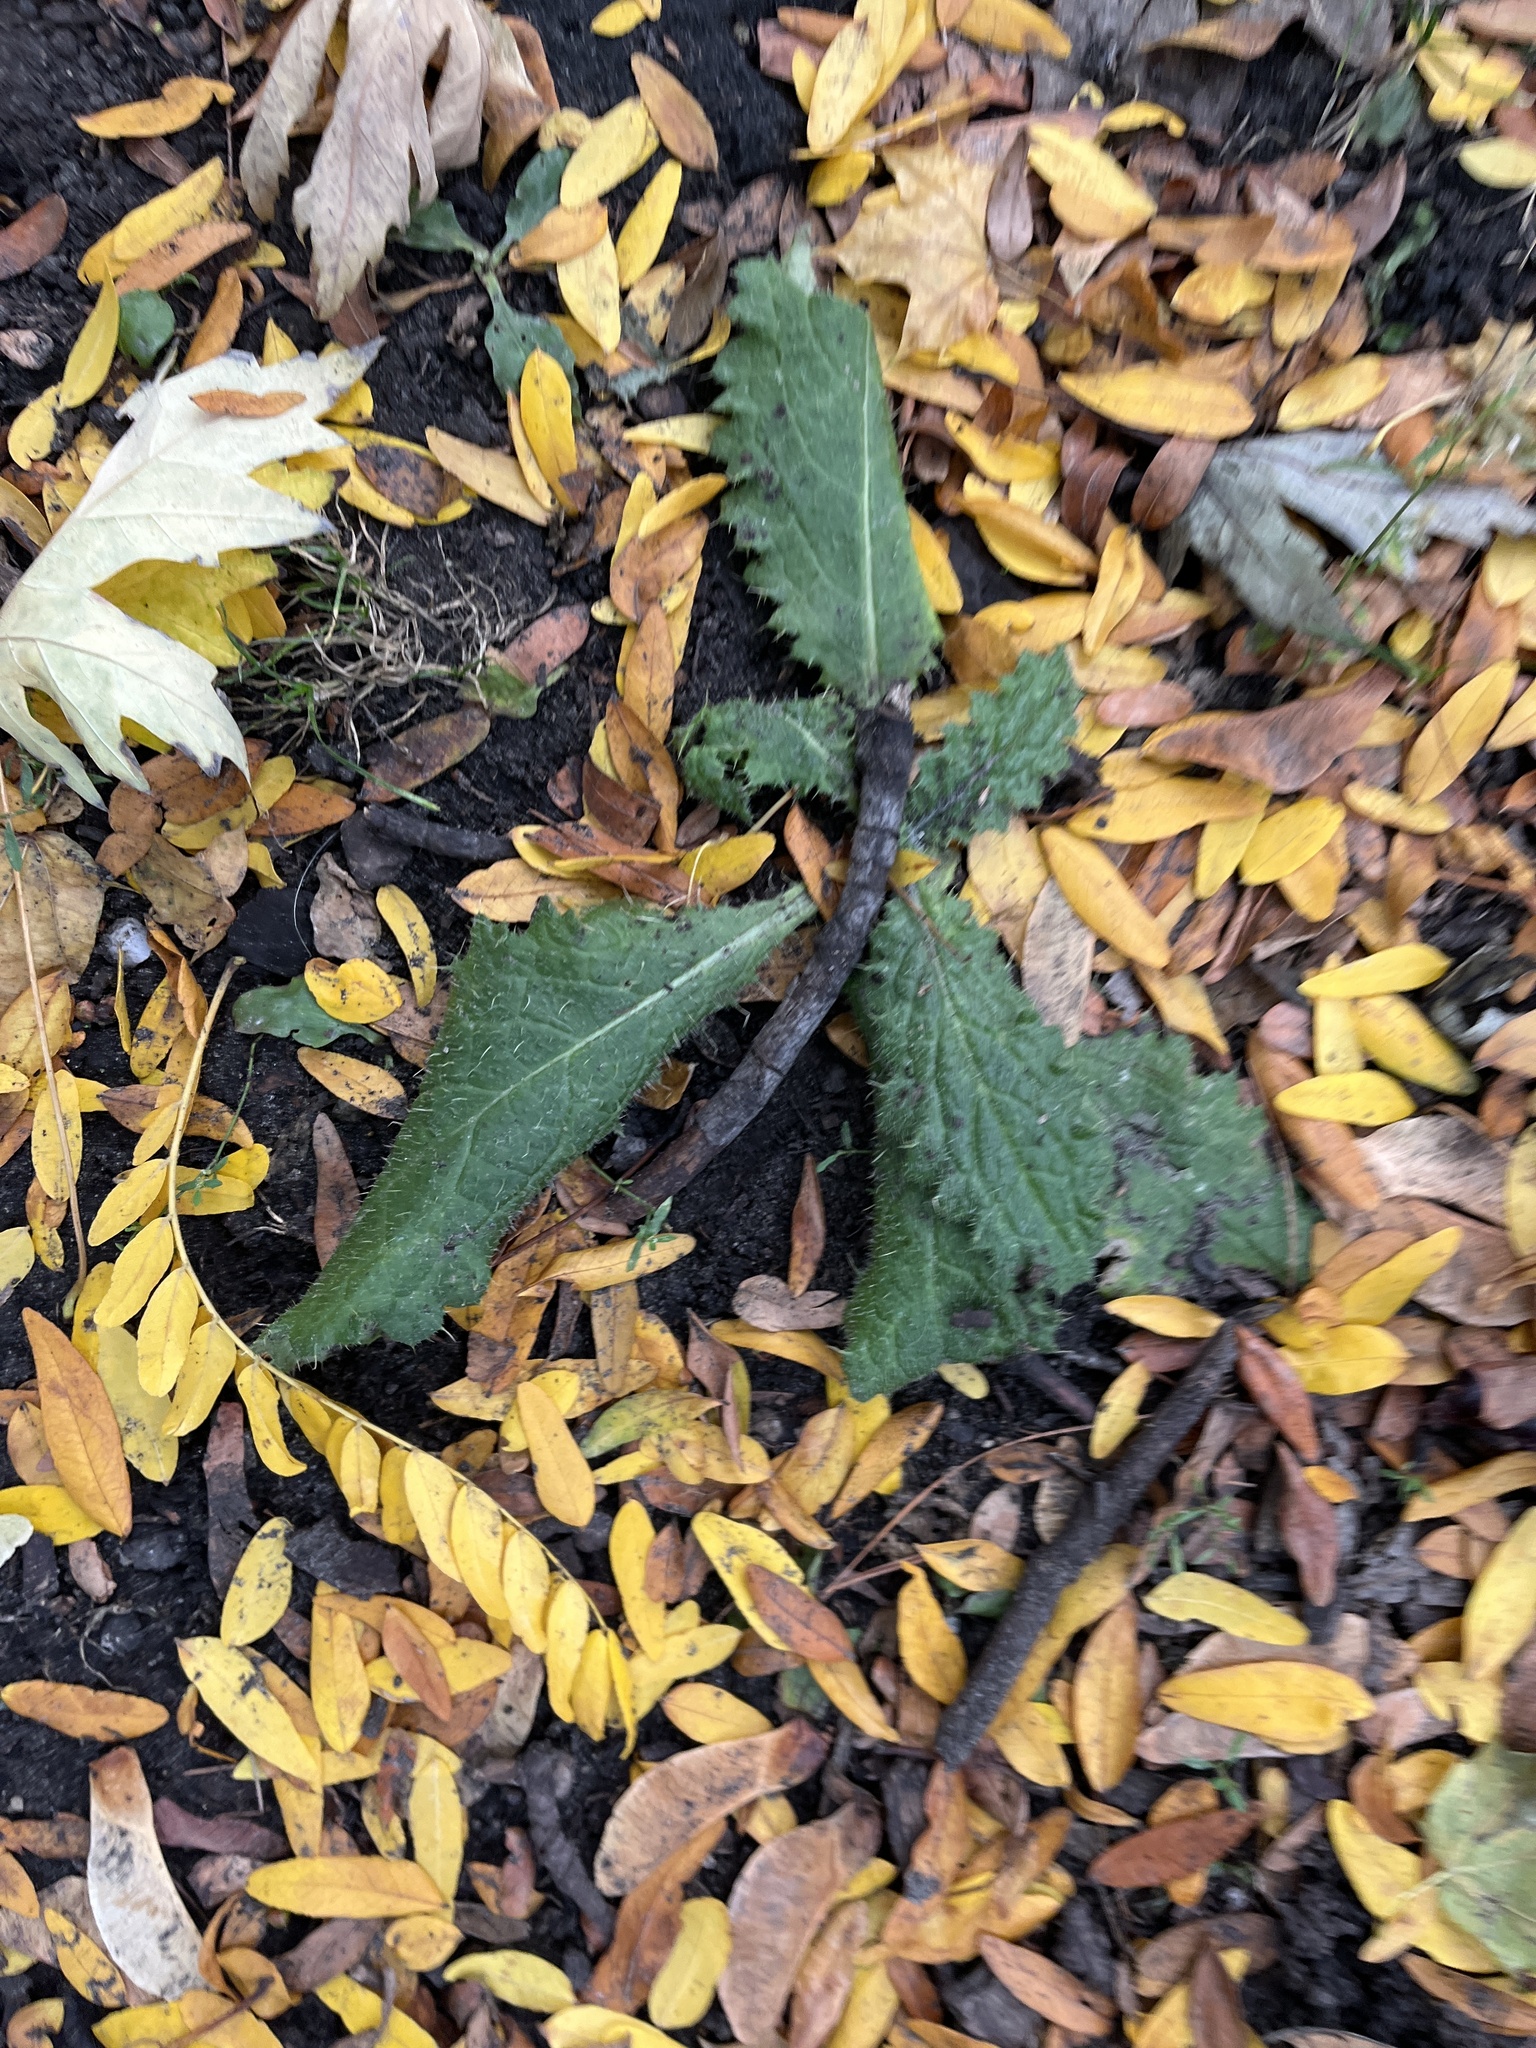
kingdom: Plantae
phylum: Tracheophyta
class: Magnoliopsida
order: Asterales
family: Asteraceae
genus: Cirsium
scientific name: Cirsium vulgare
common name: Bull thistle
